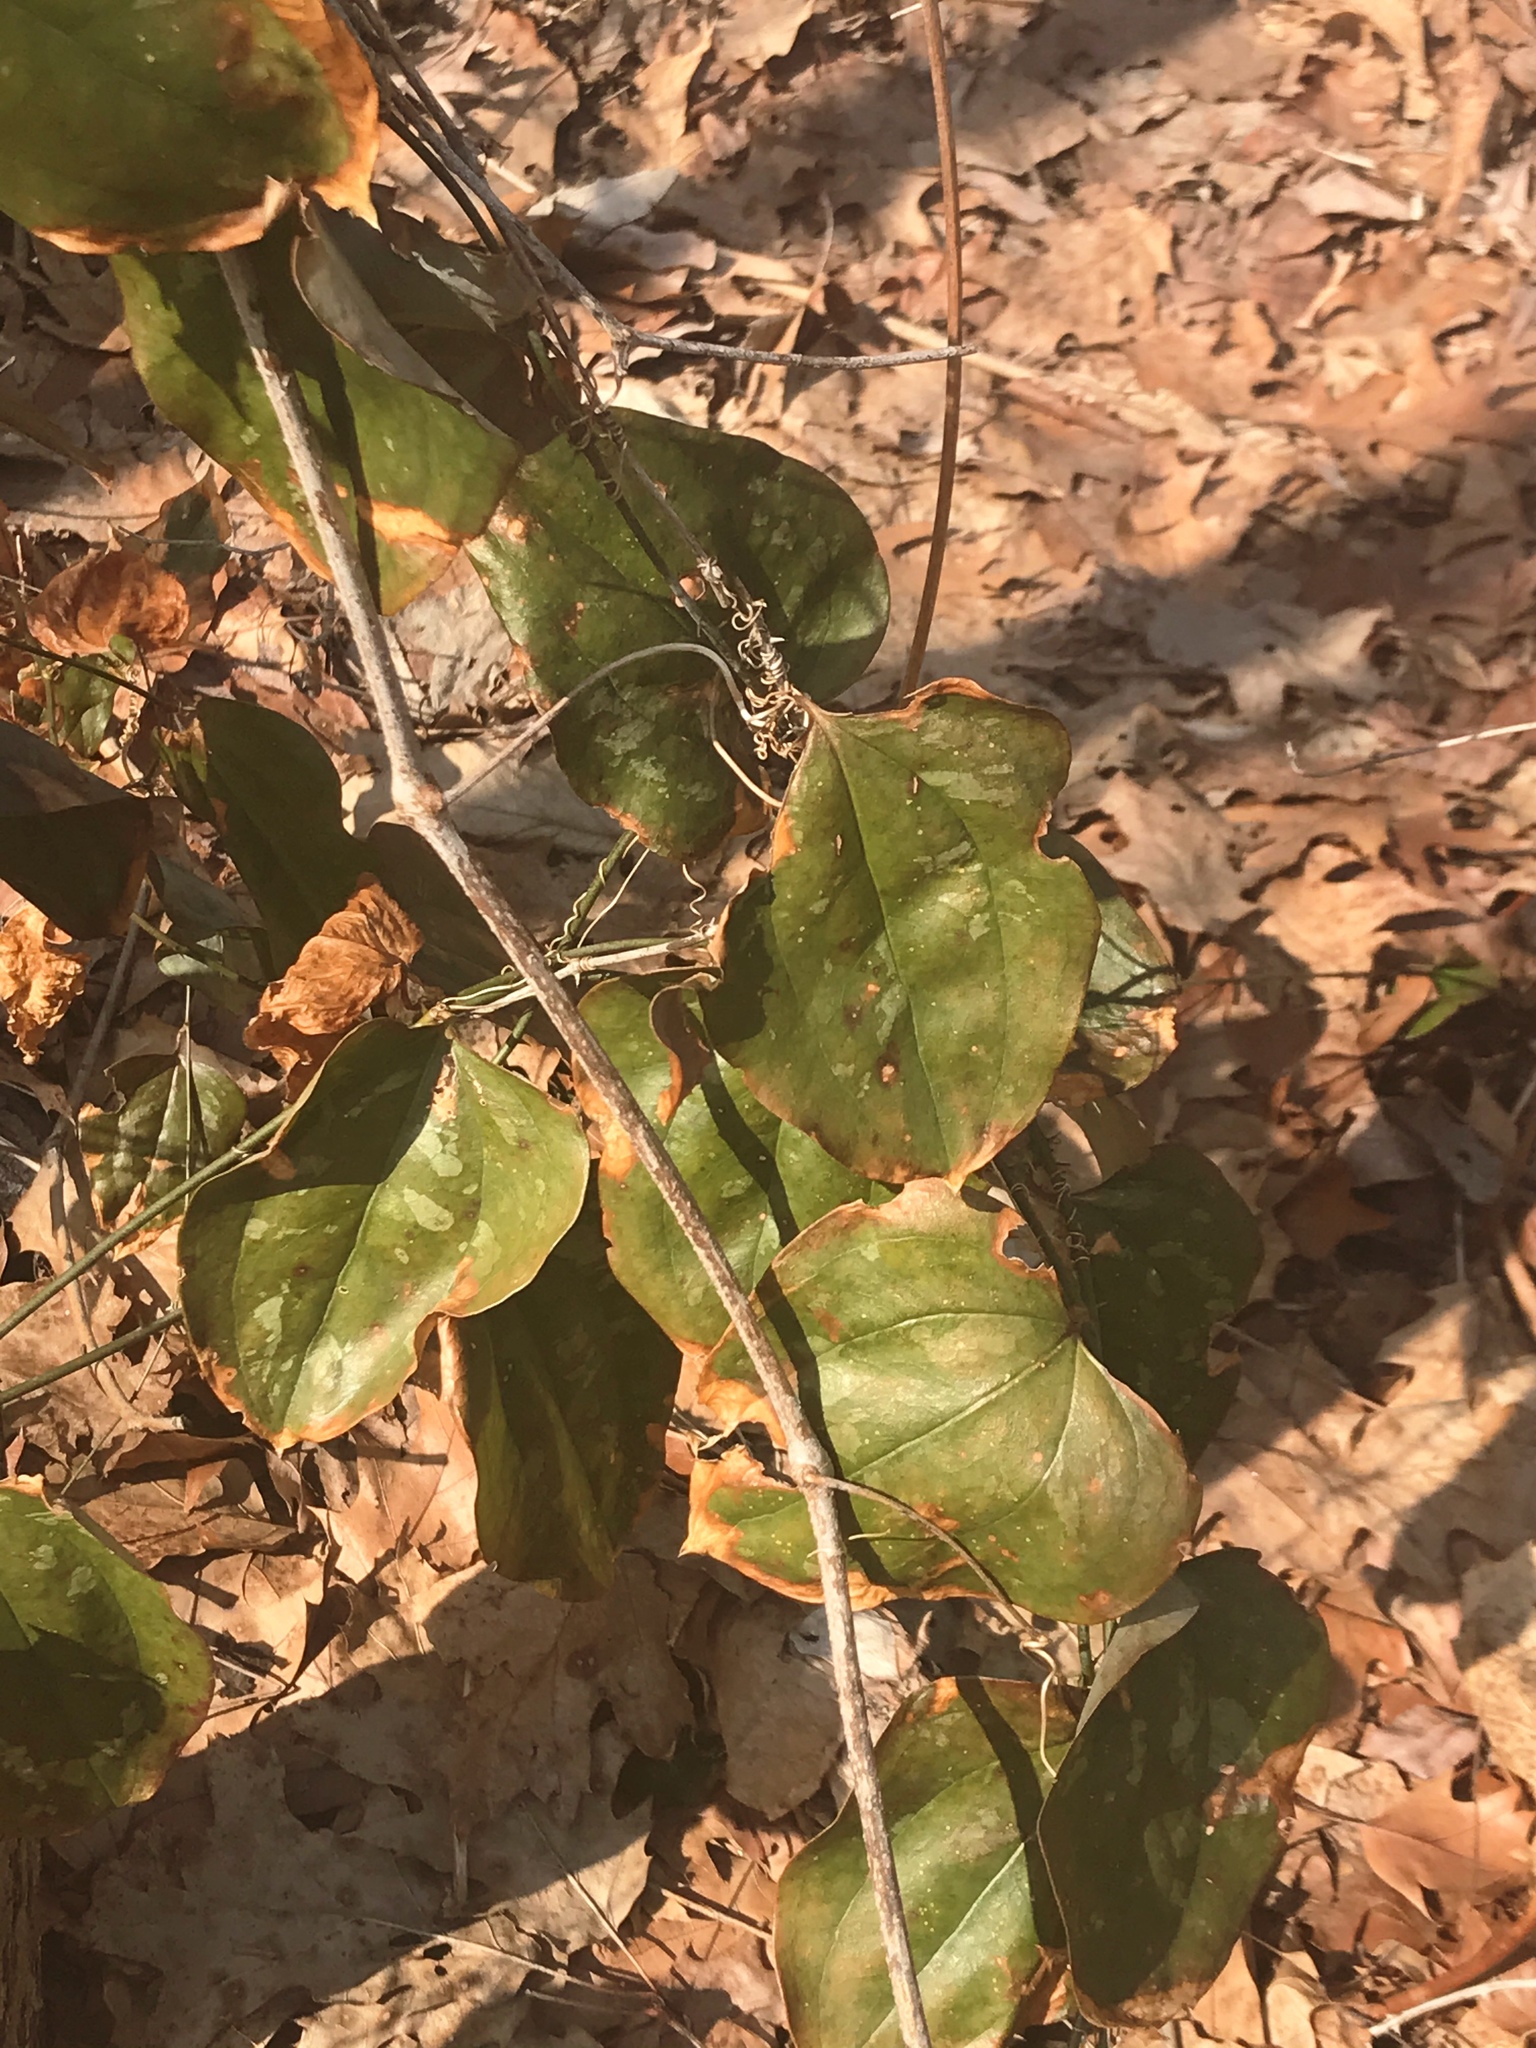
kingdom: Plantae
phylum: Tracheophyta
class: Liliopsida
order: Liliales
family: Smilacaceae
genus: Smilax
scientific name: Smilax glauca
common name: Cat greenbrier
